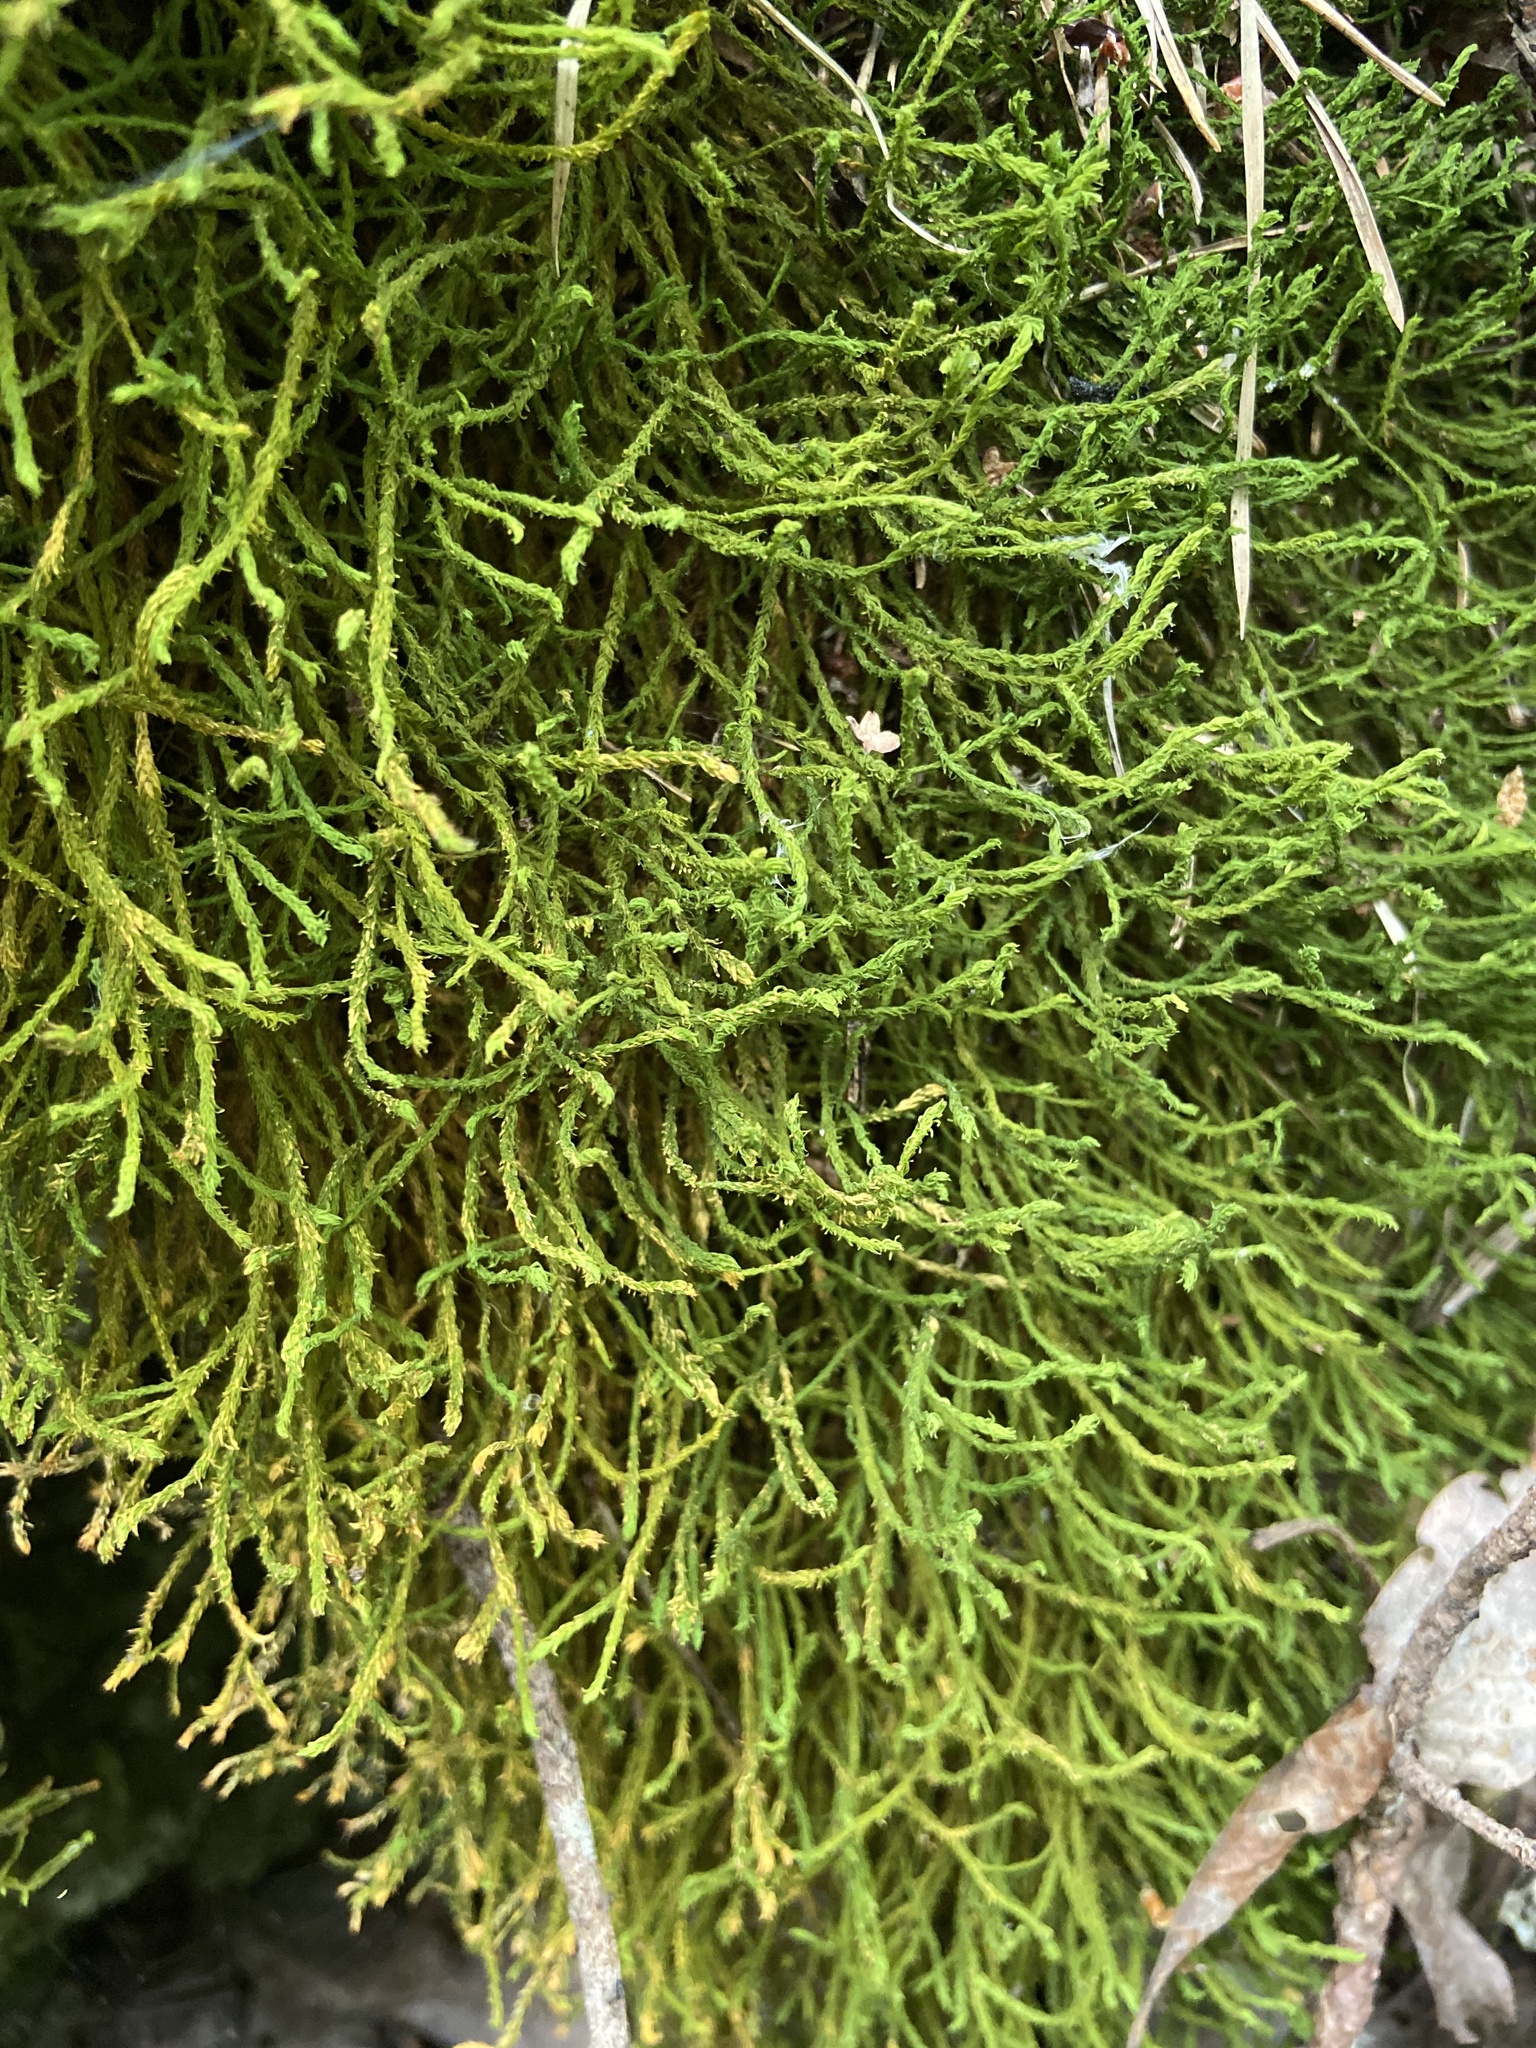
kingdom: Plantae
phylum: Bryophyta
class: Bryopsida
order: Hypnales
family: Anomodontaceae
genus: Anomodon
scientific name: Anomodon viticulosus
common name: Tall anomodon
